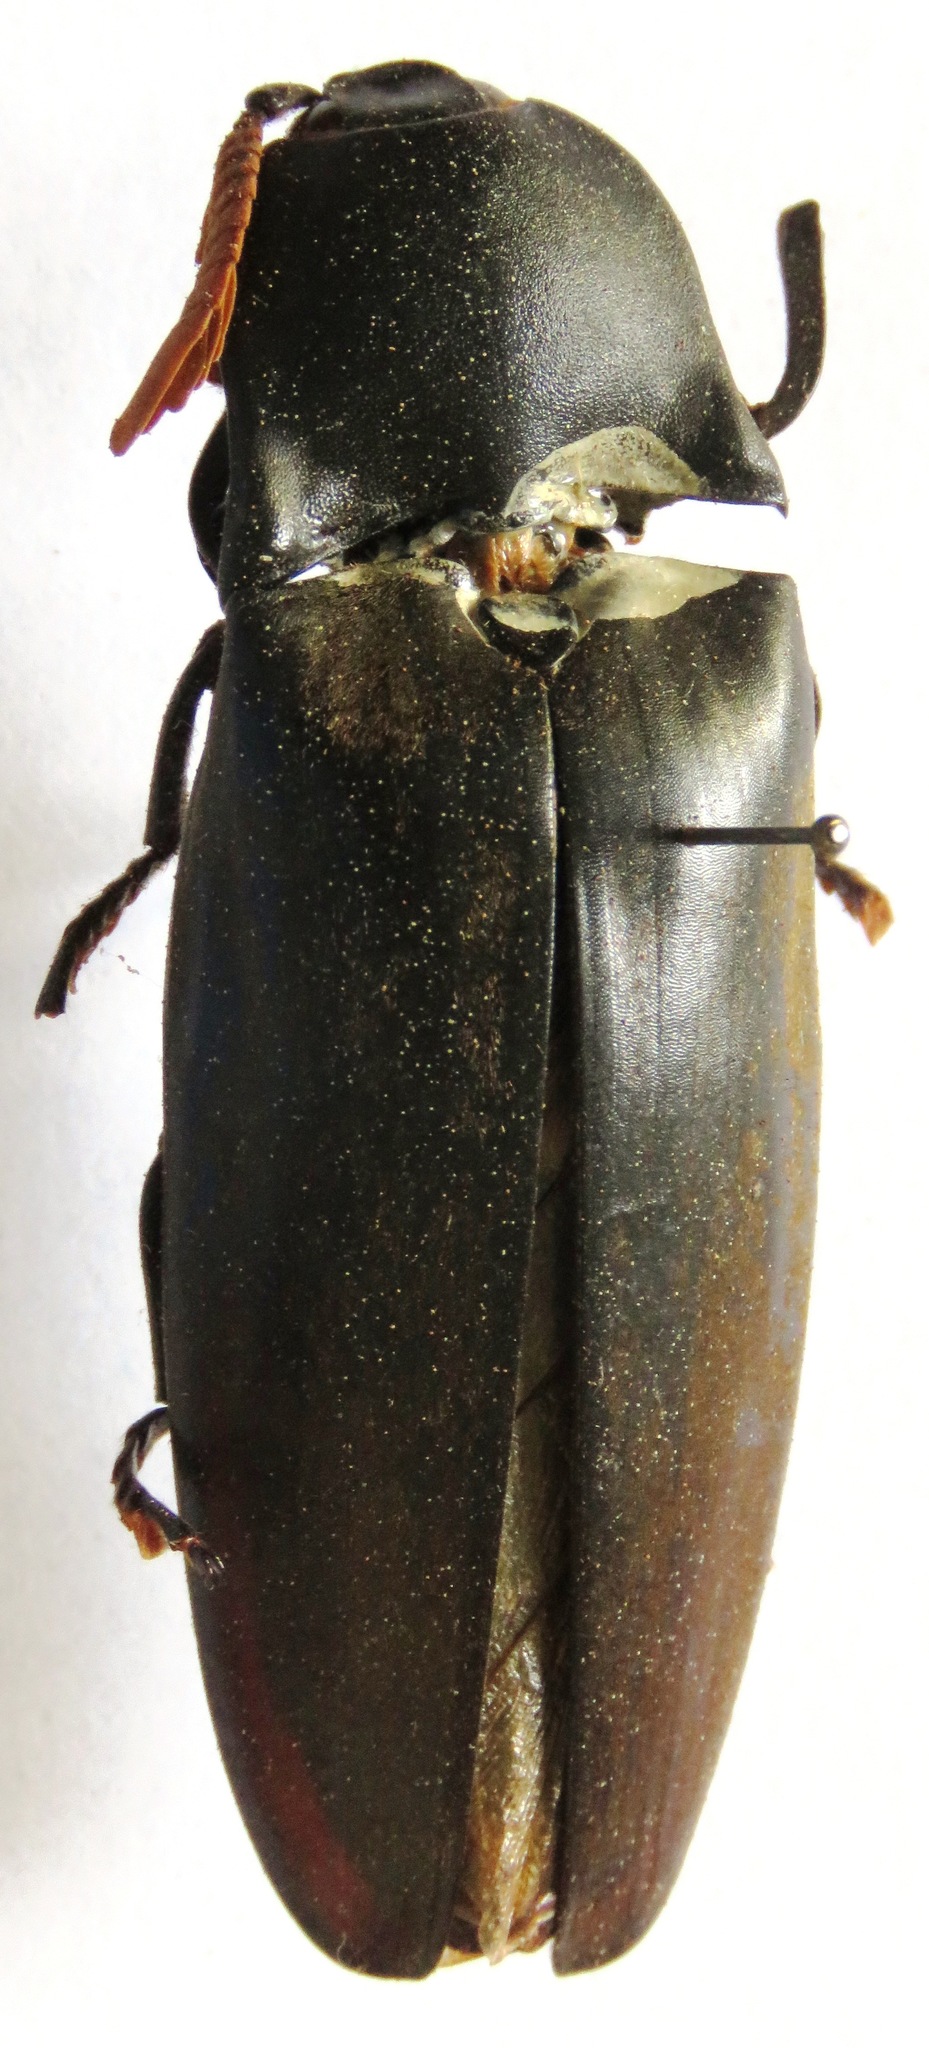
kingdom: Animalia
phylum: Arthropoda
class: Insecta
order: Coleoptera
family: Elateridae
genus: Sinelater
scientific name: Sinelater perroti
